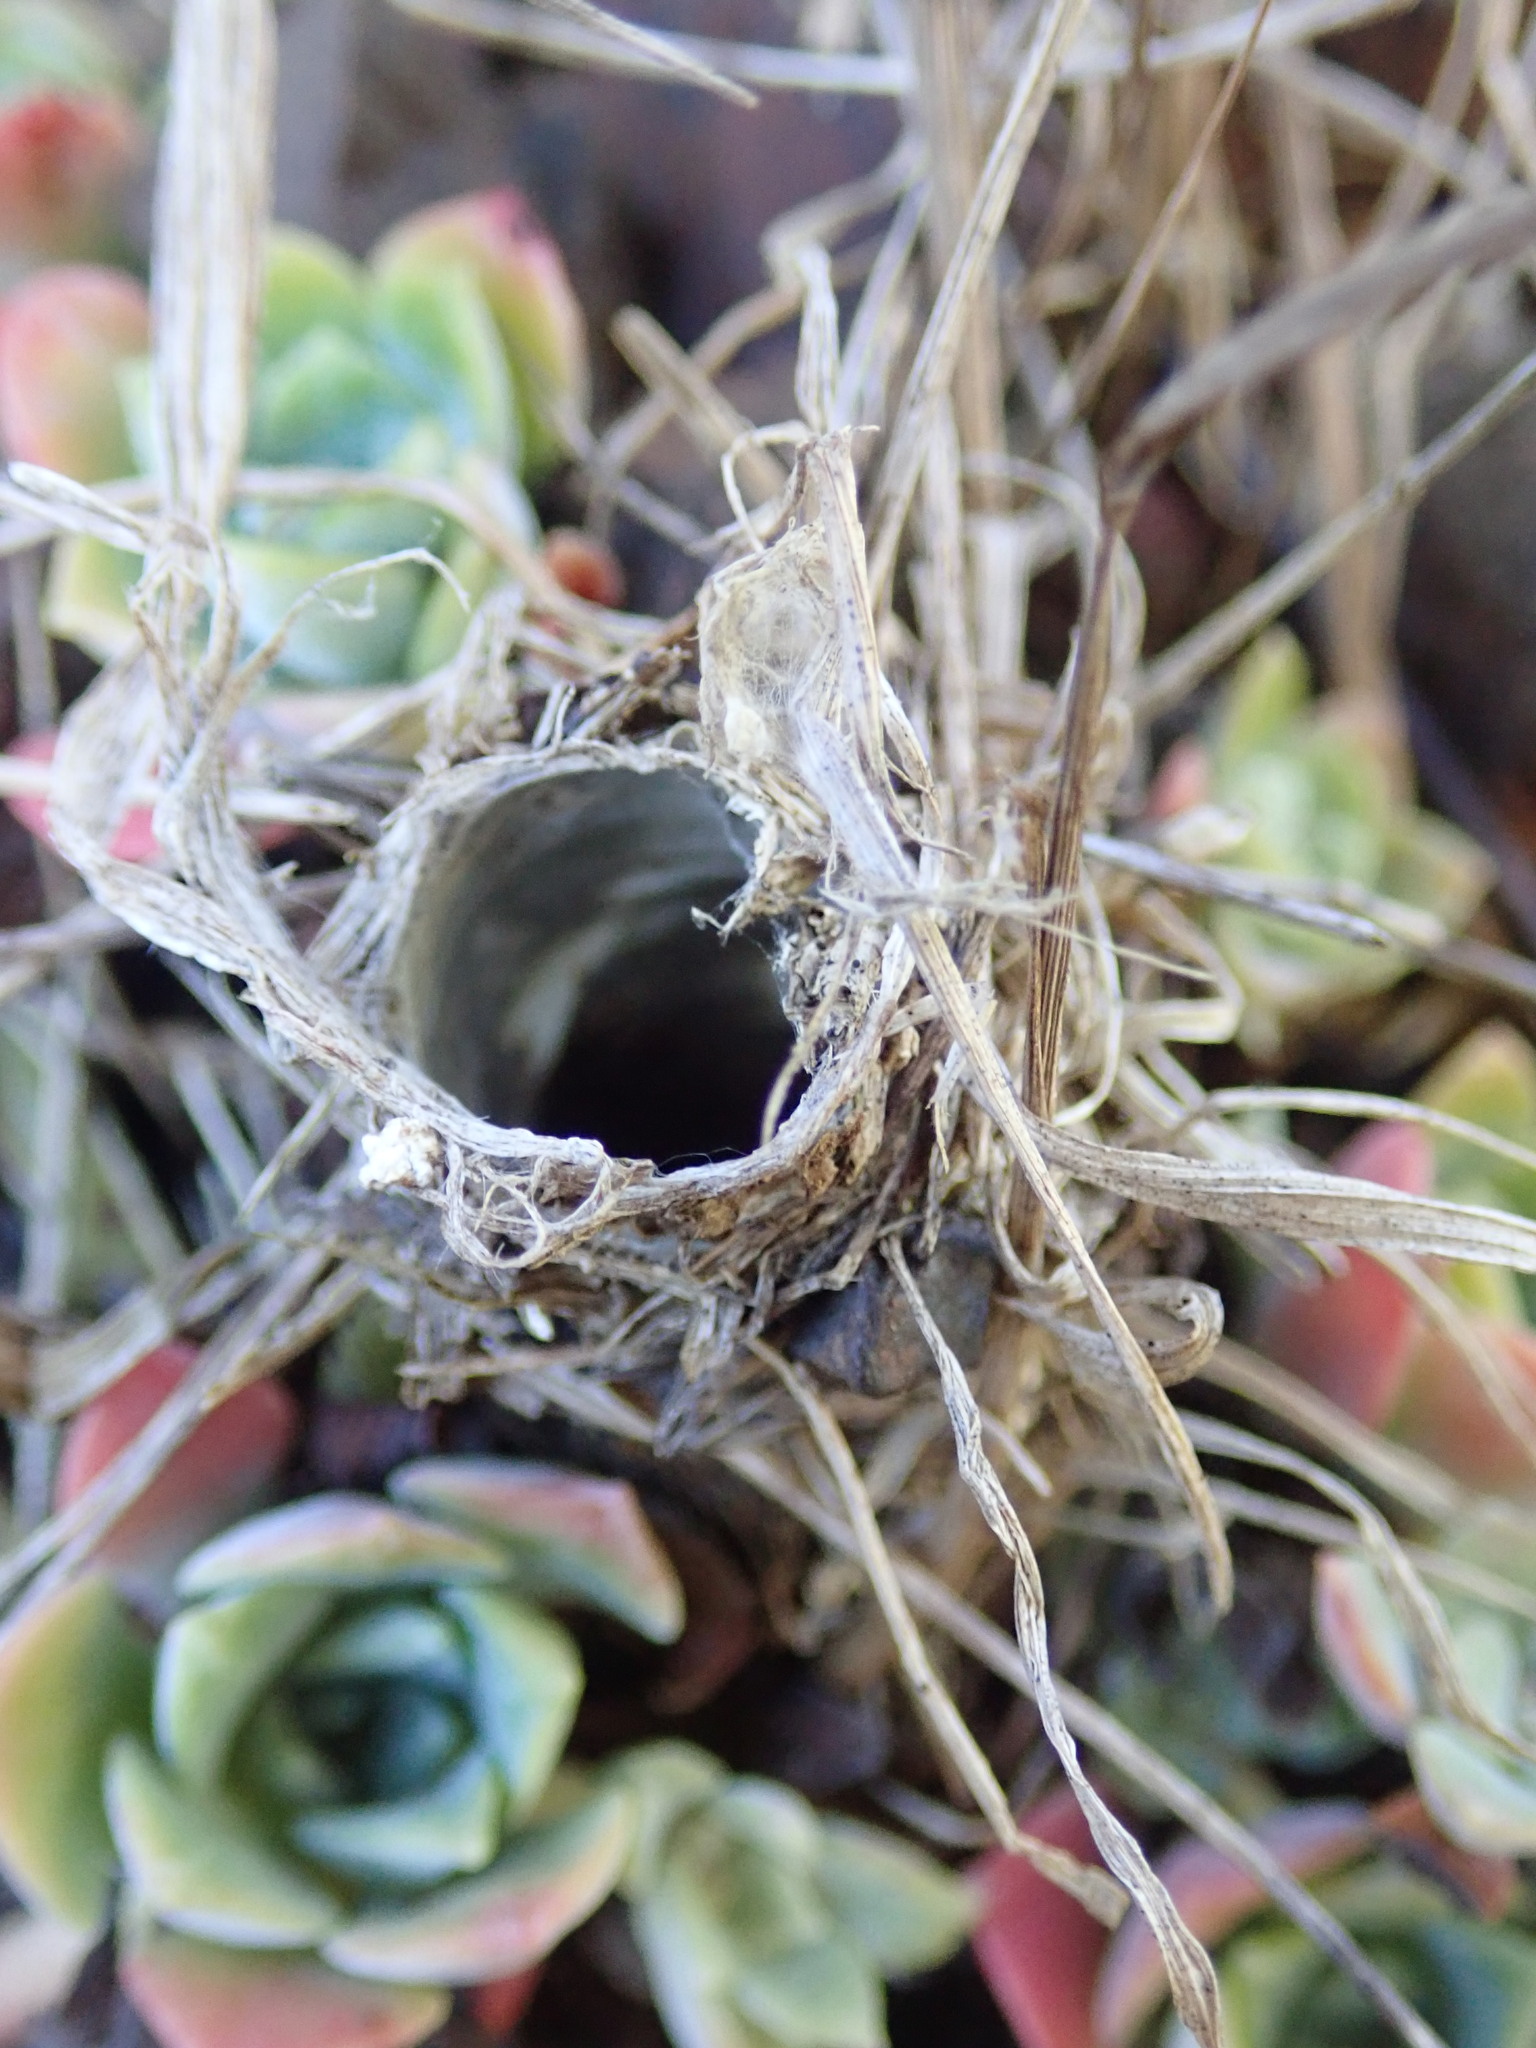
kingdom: Animalia
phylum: Arthropoda
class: Arachnida
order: Araneae
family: Antrodiaetidae
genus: Atypoides
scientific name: Atypoides riversi
